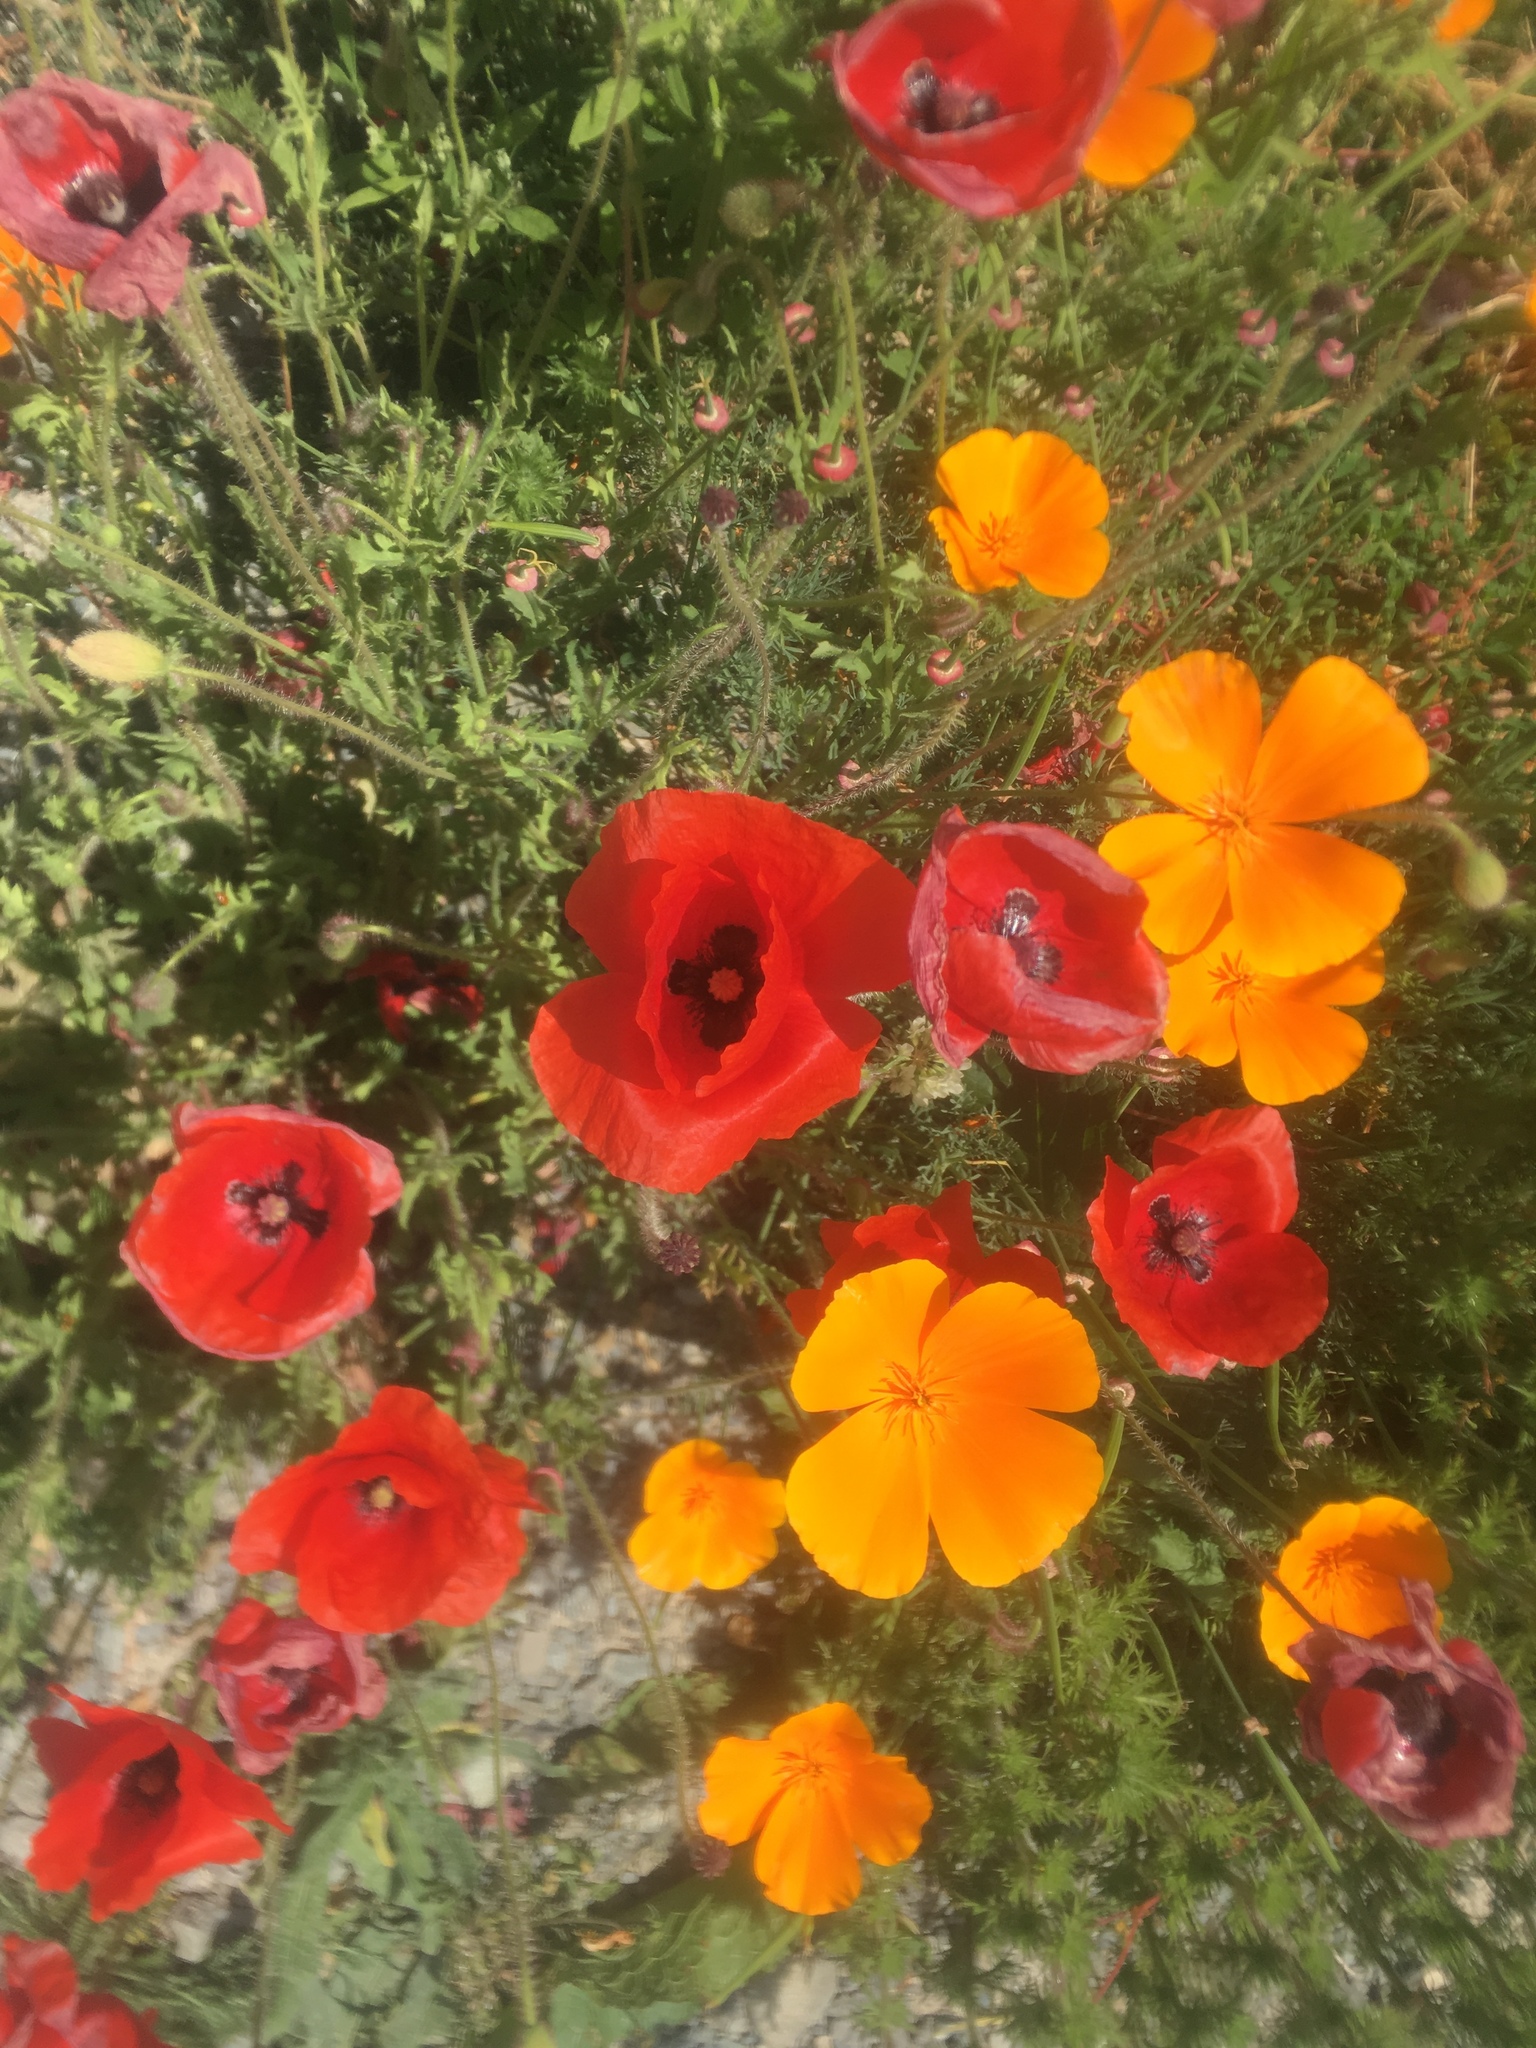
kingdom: Plantae
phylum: Tracheophyta
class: Magnoliopsida
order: Ranunculales
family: Papaveraceae
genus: Papaver
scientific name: Papaver rhoeas
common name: Corn poppy
